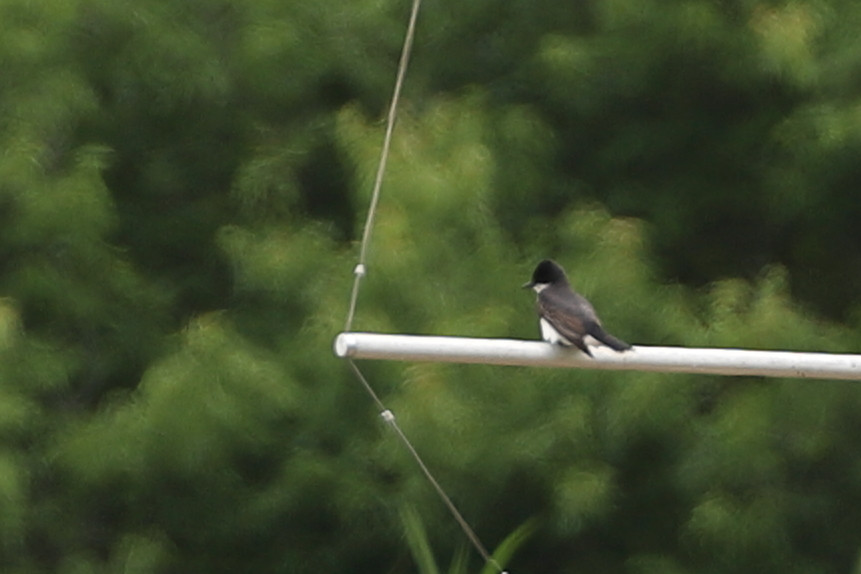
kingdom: Animalia
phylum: Chordata
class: Aves
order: Passeriformes
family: Tyrannidae
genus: Tyrannus
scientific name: Tyrannus tyrannus
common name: Eastern kingbird
